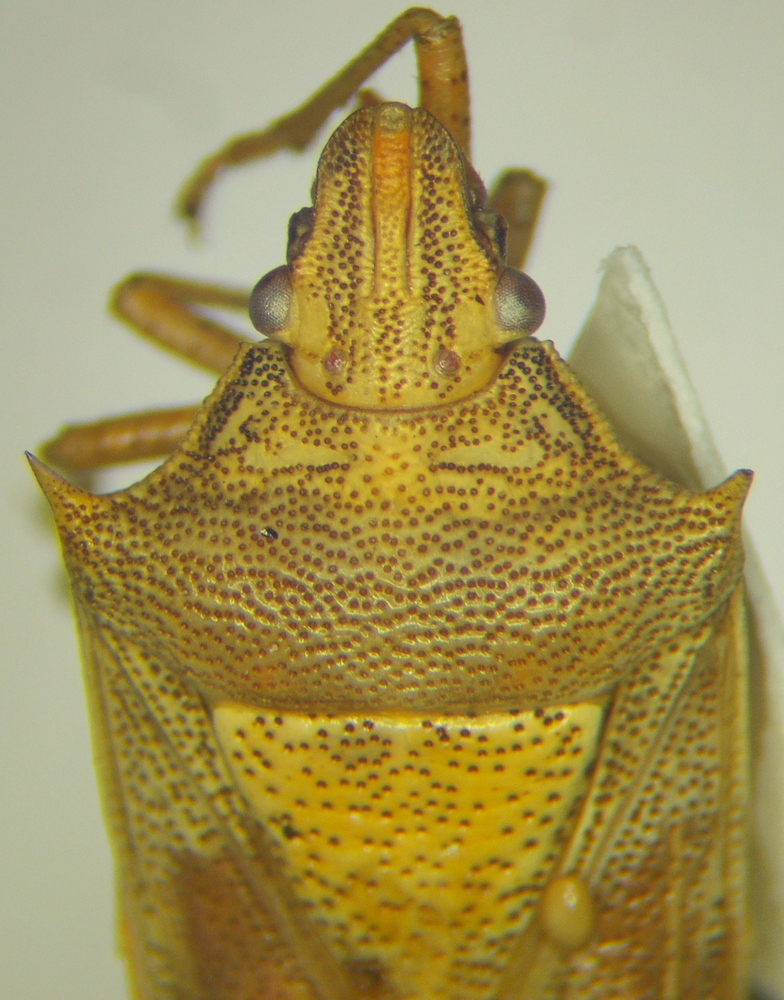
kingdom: Animalia
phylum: Arthropoda
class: Insecta
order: Hemiptera
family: Pentatomidae
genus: Oebalus
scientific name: Oebalus pugnax
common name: Rice stink bug
